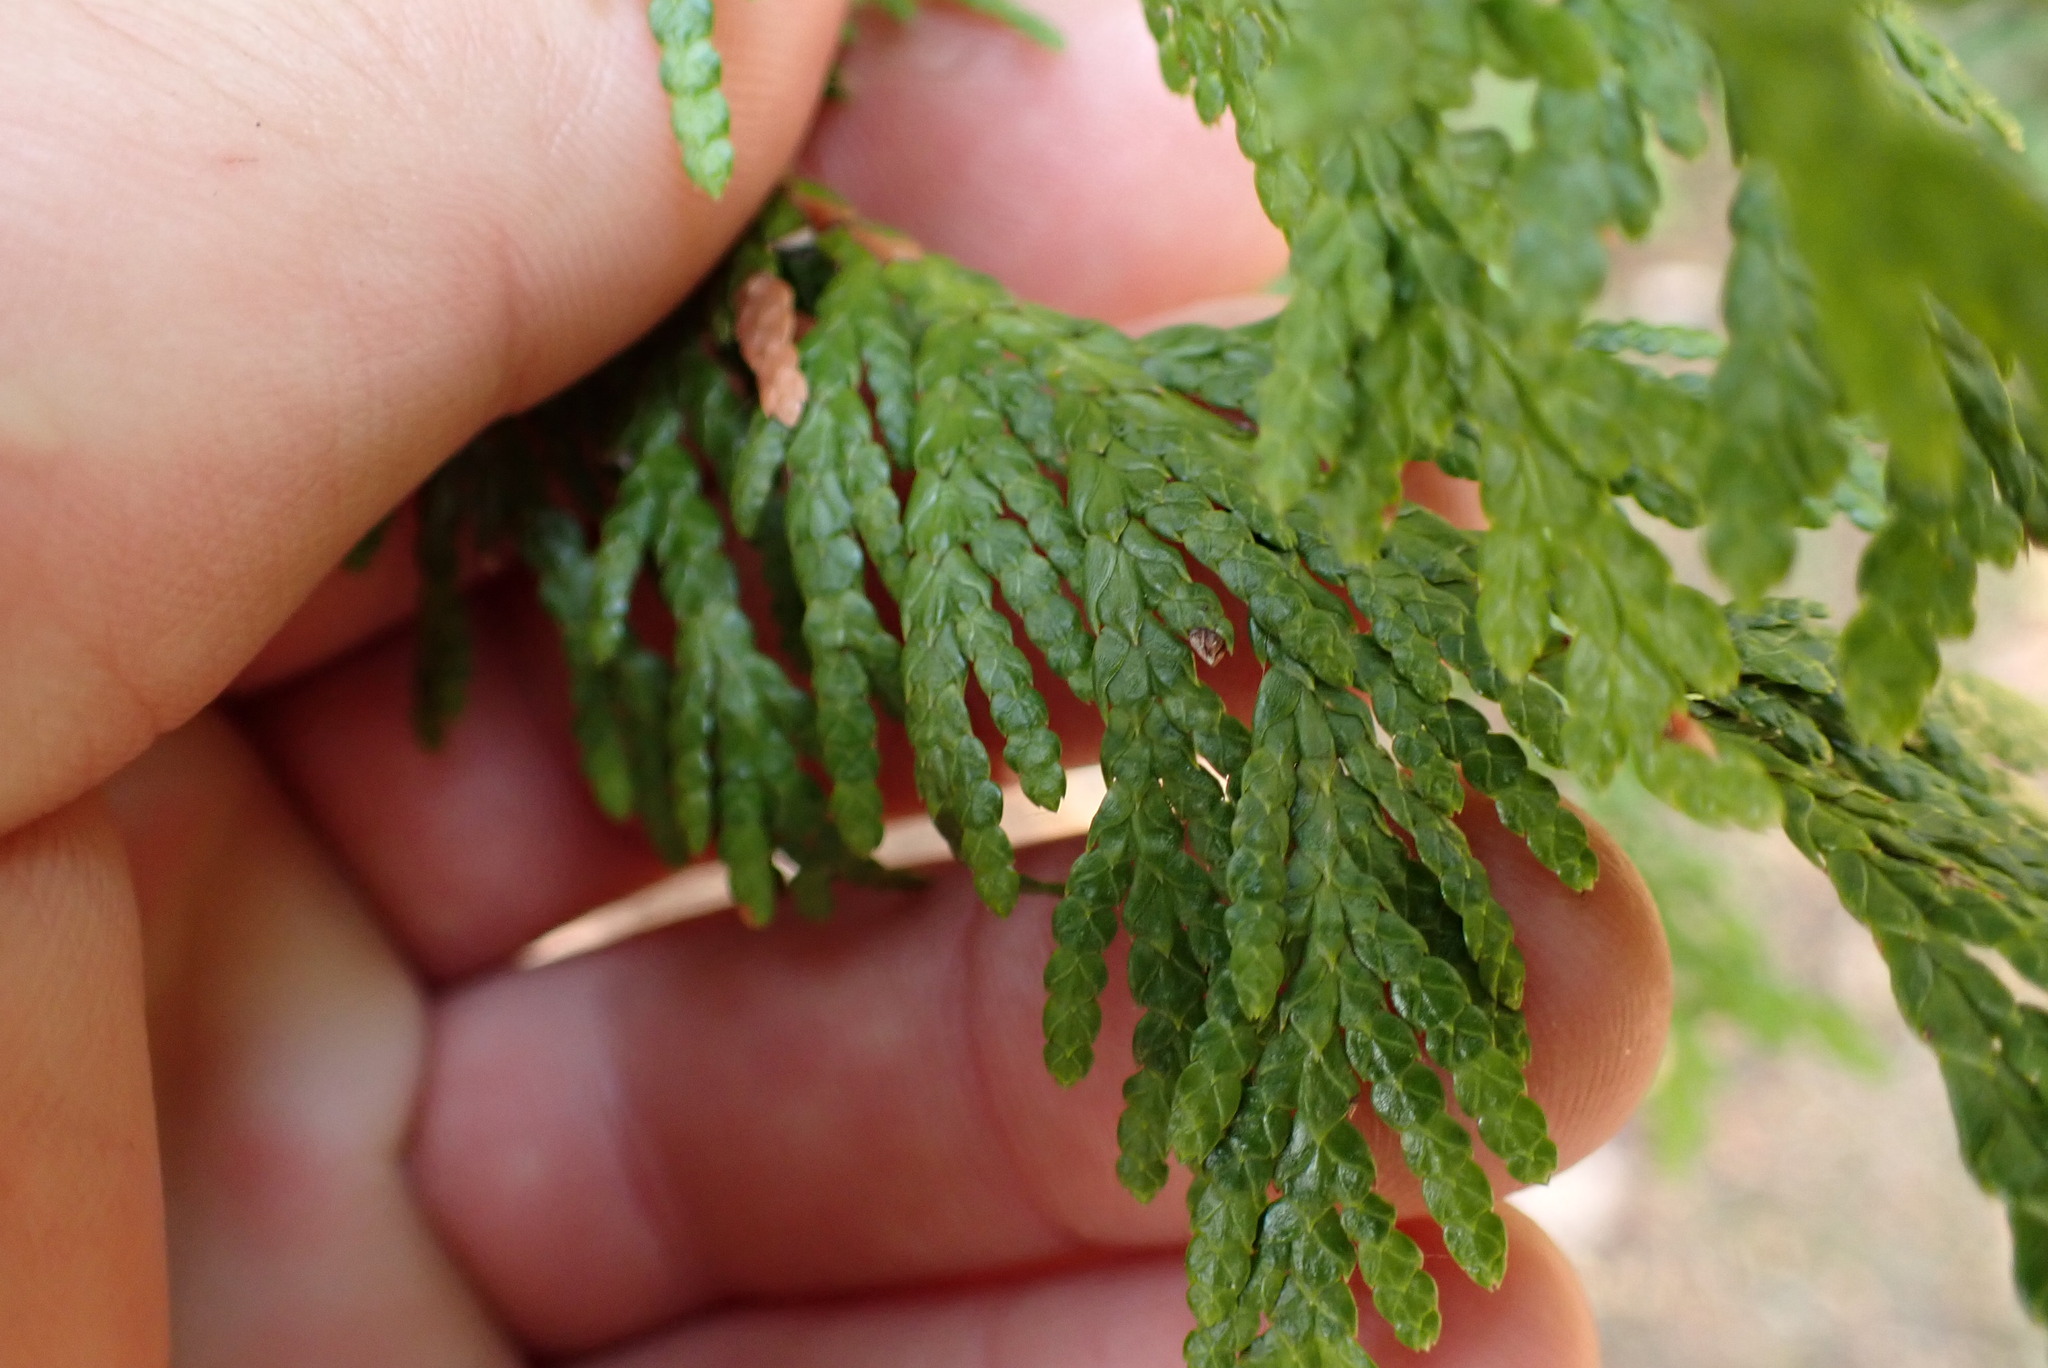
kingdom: Plantae
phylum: Tracheophyta
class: Pinopsida
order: Pinales
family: Cupressaceae
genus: Thuja
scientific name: Thuja plicata
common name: Western red-cedar
